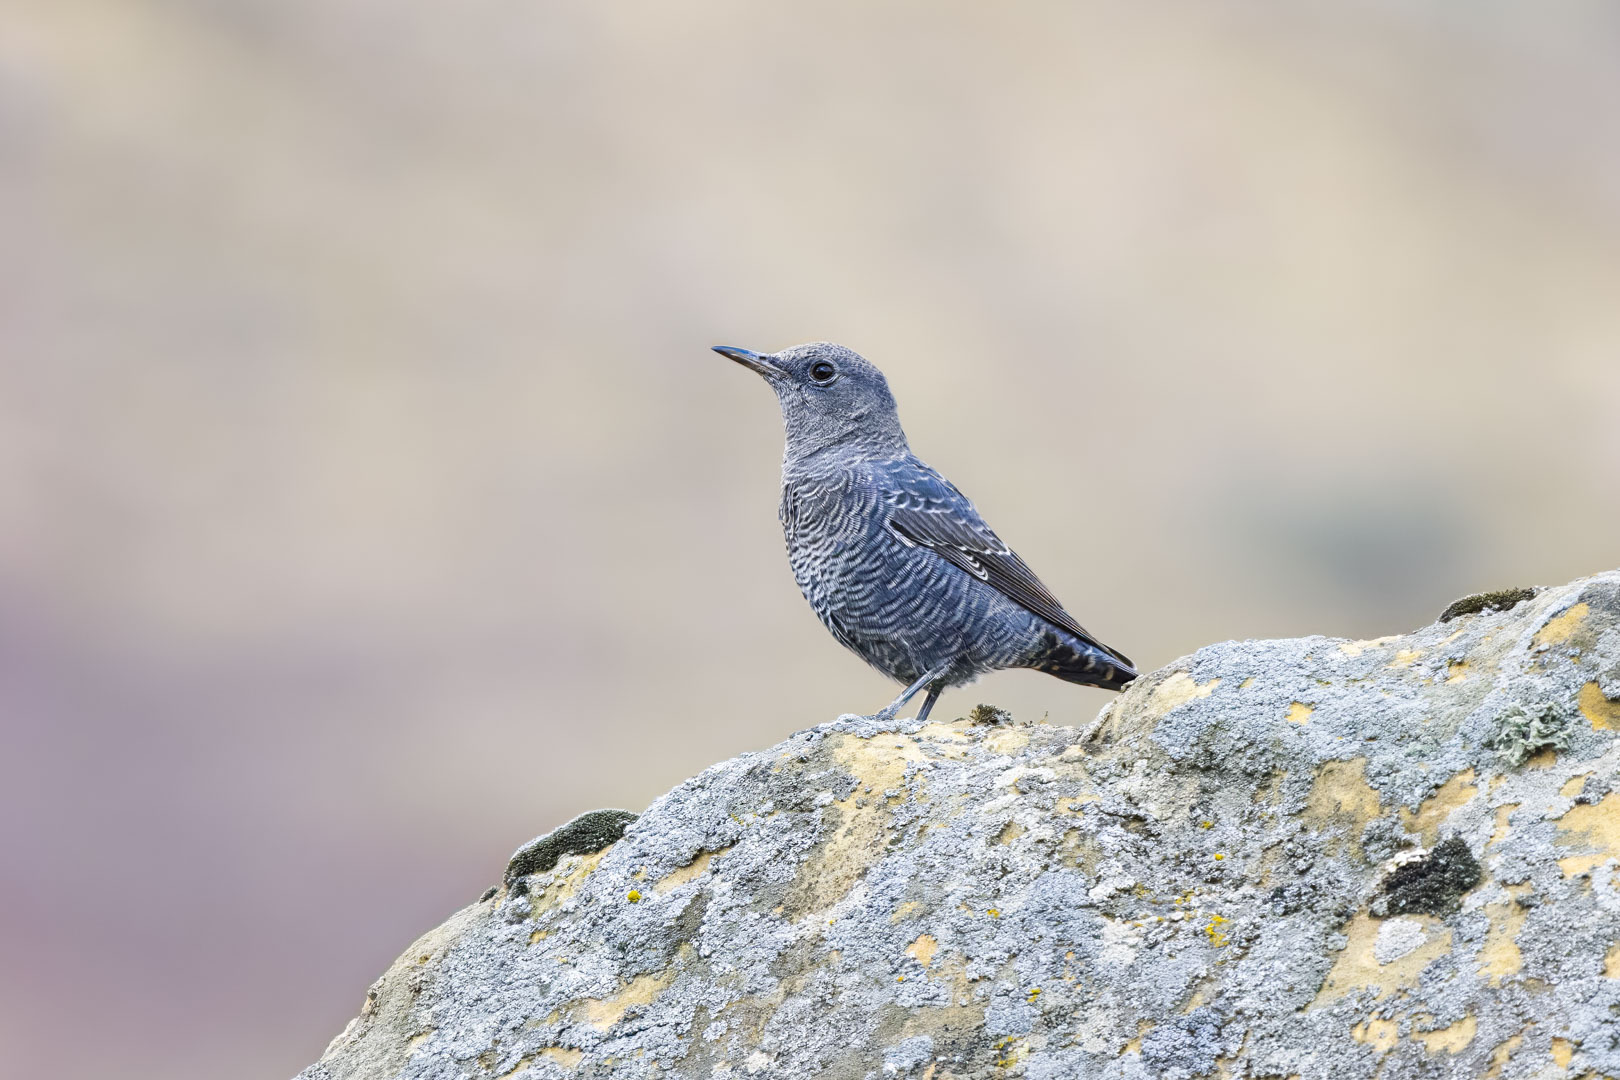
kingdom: Animalia
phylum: Chordata
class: Aves
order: Passeriformes
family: Muscicapidae
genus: Monticola
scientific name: Monticola solitarius
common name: Blue rock thrush
